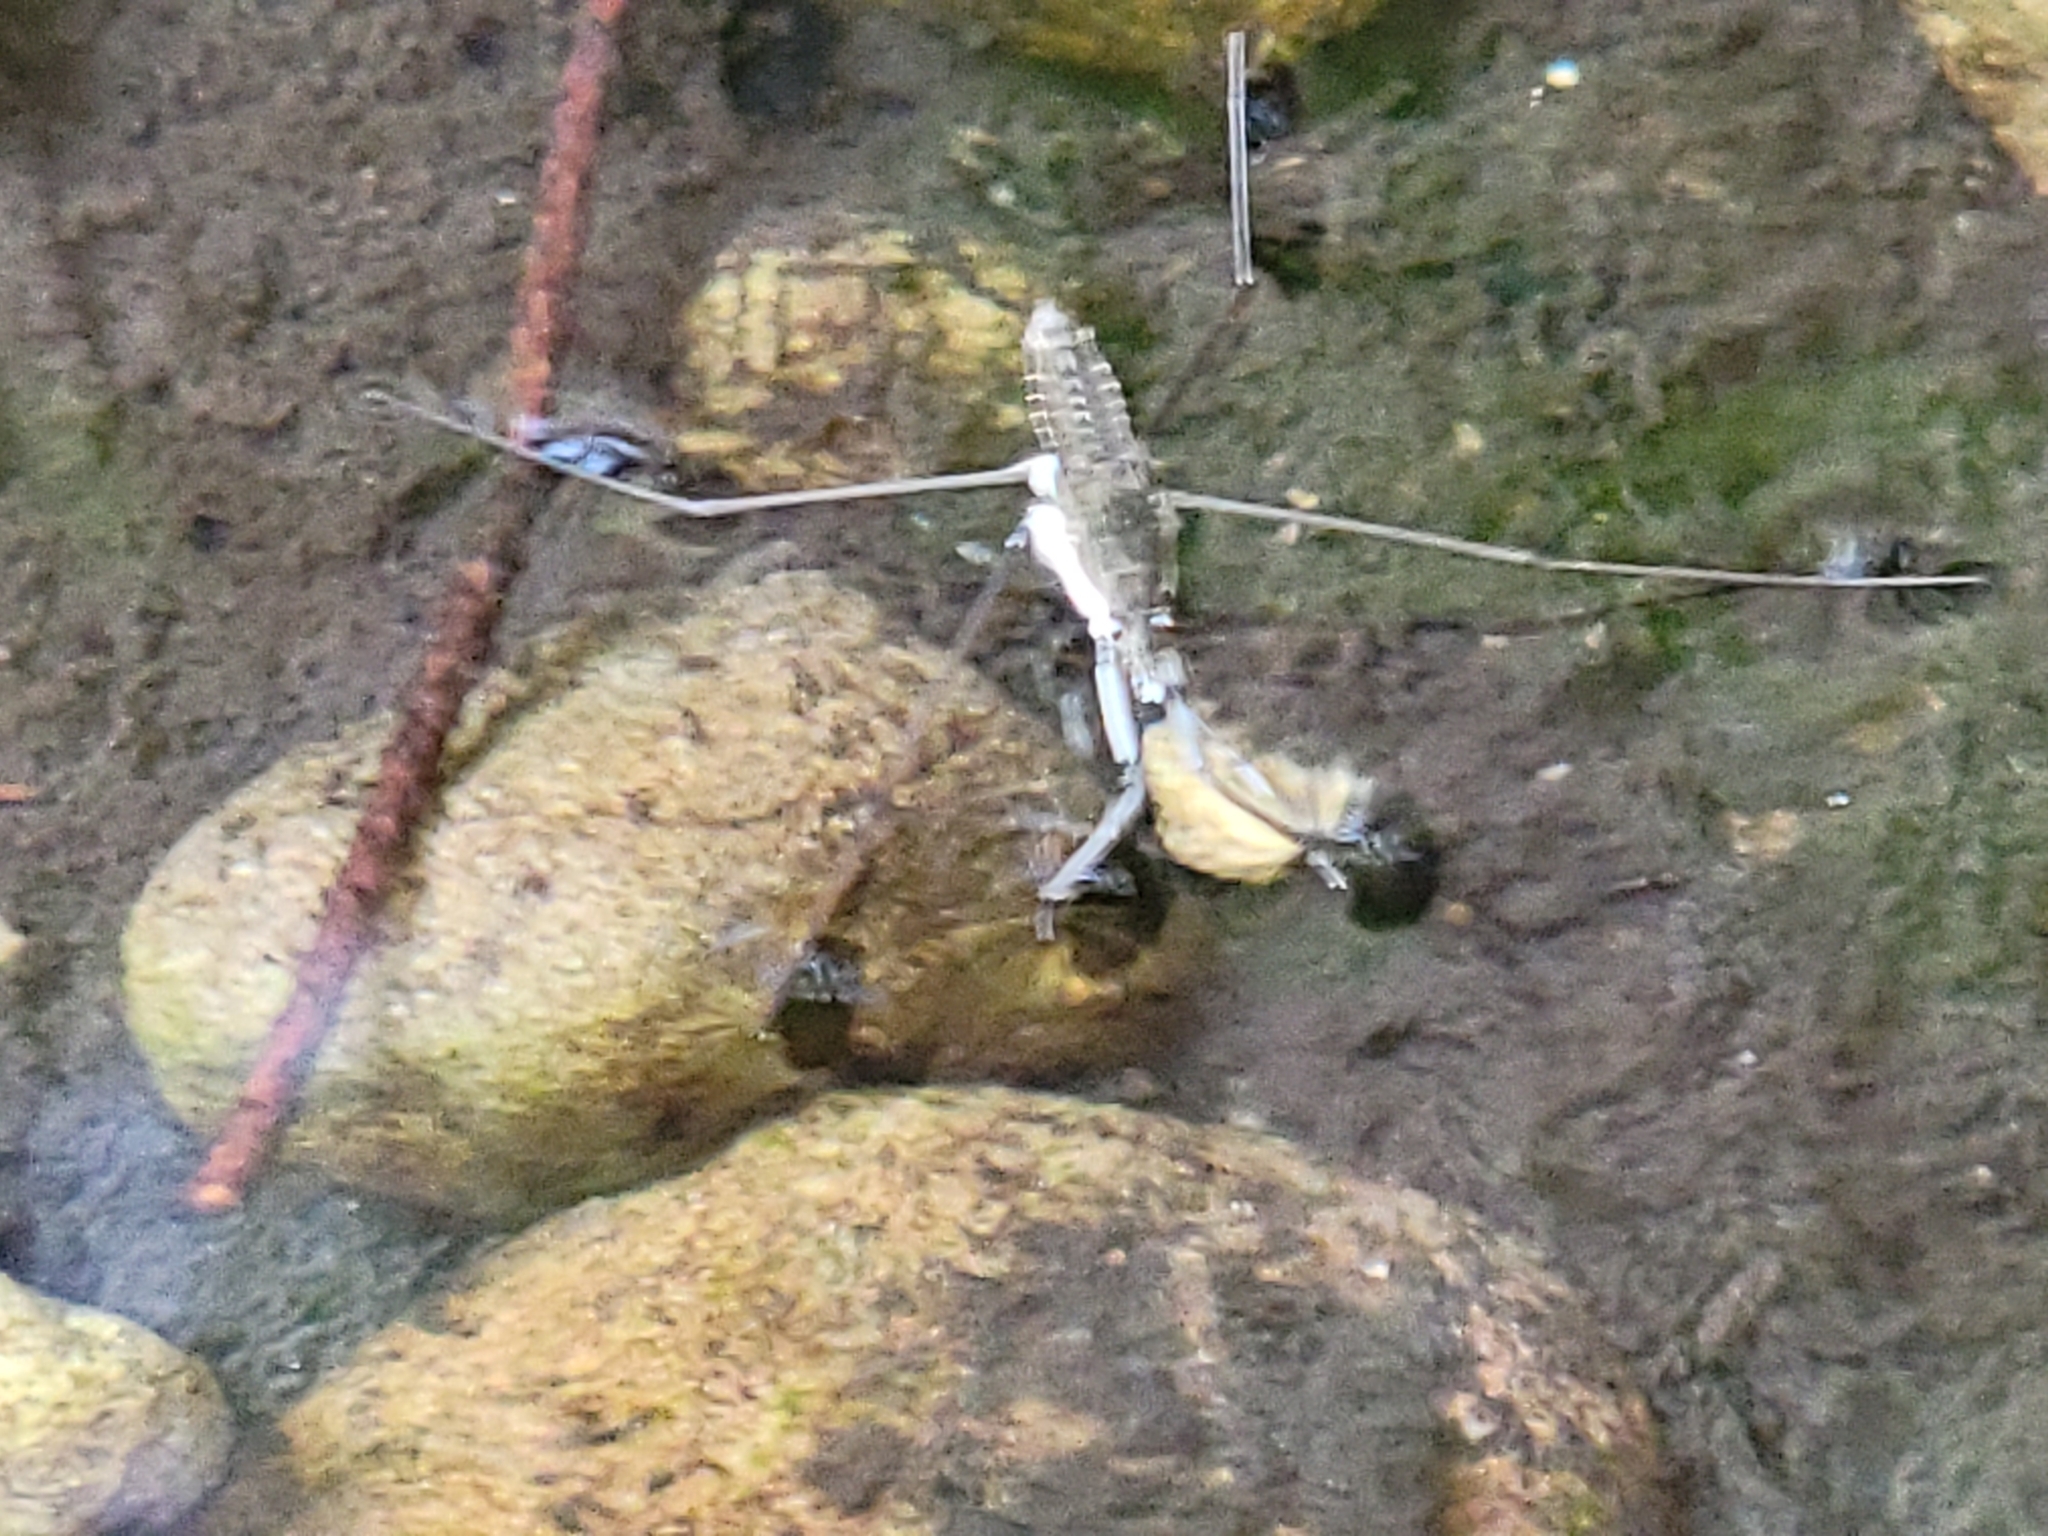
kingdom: Animalia
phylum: Arthropoda
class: Insecta
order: Hemiptera
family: Gerridae
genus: Aquarius
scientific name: Aquarius remigis
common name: Common water strider
